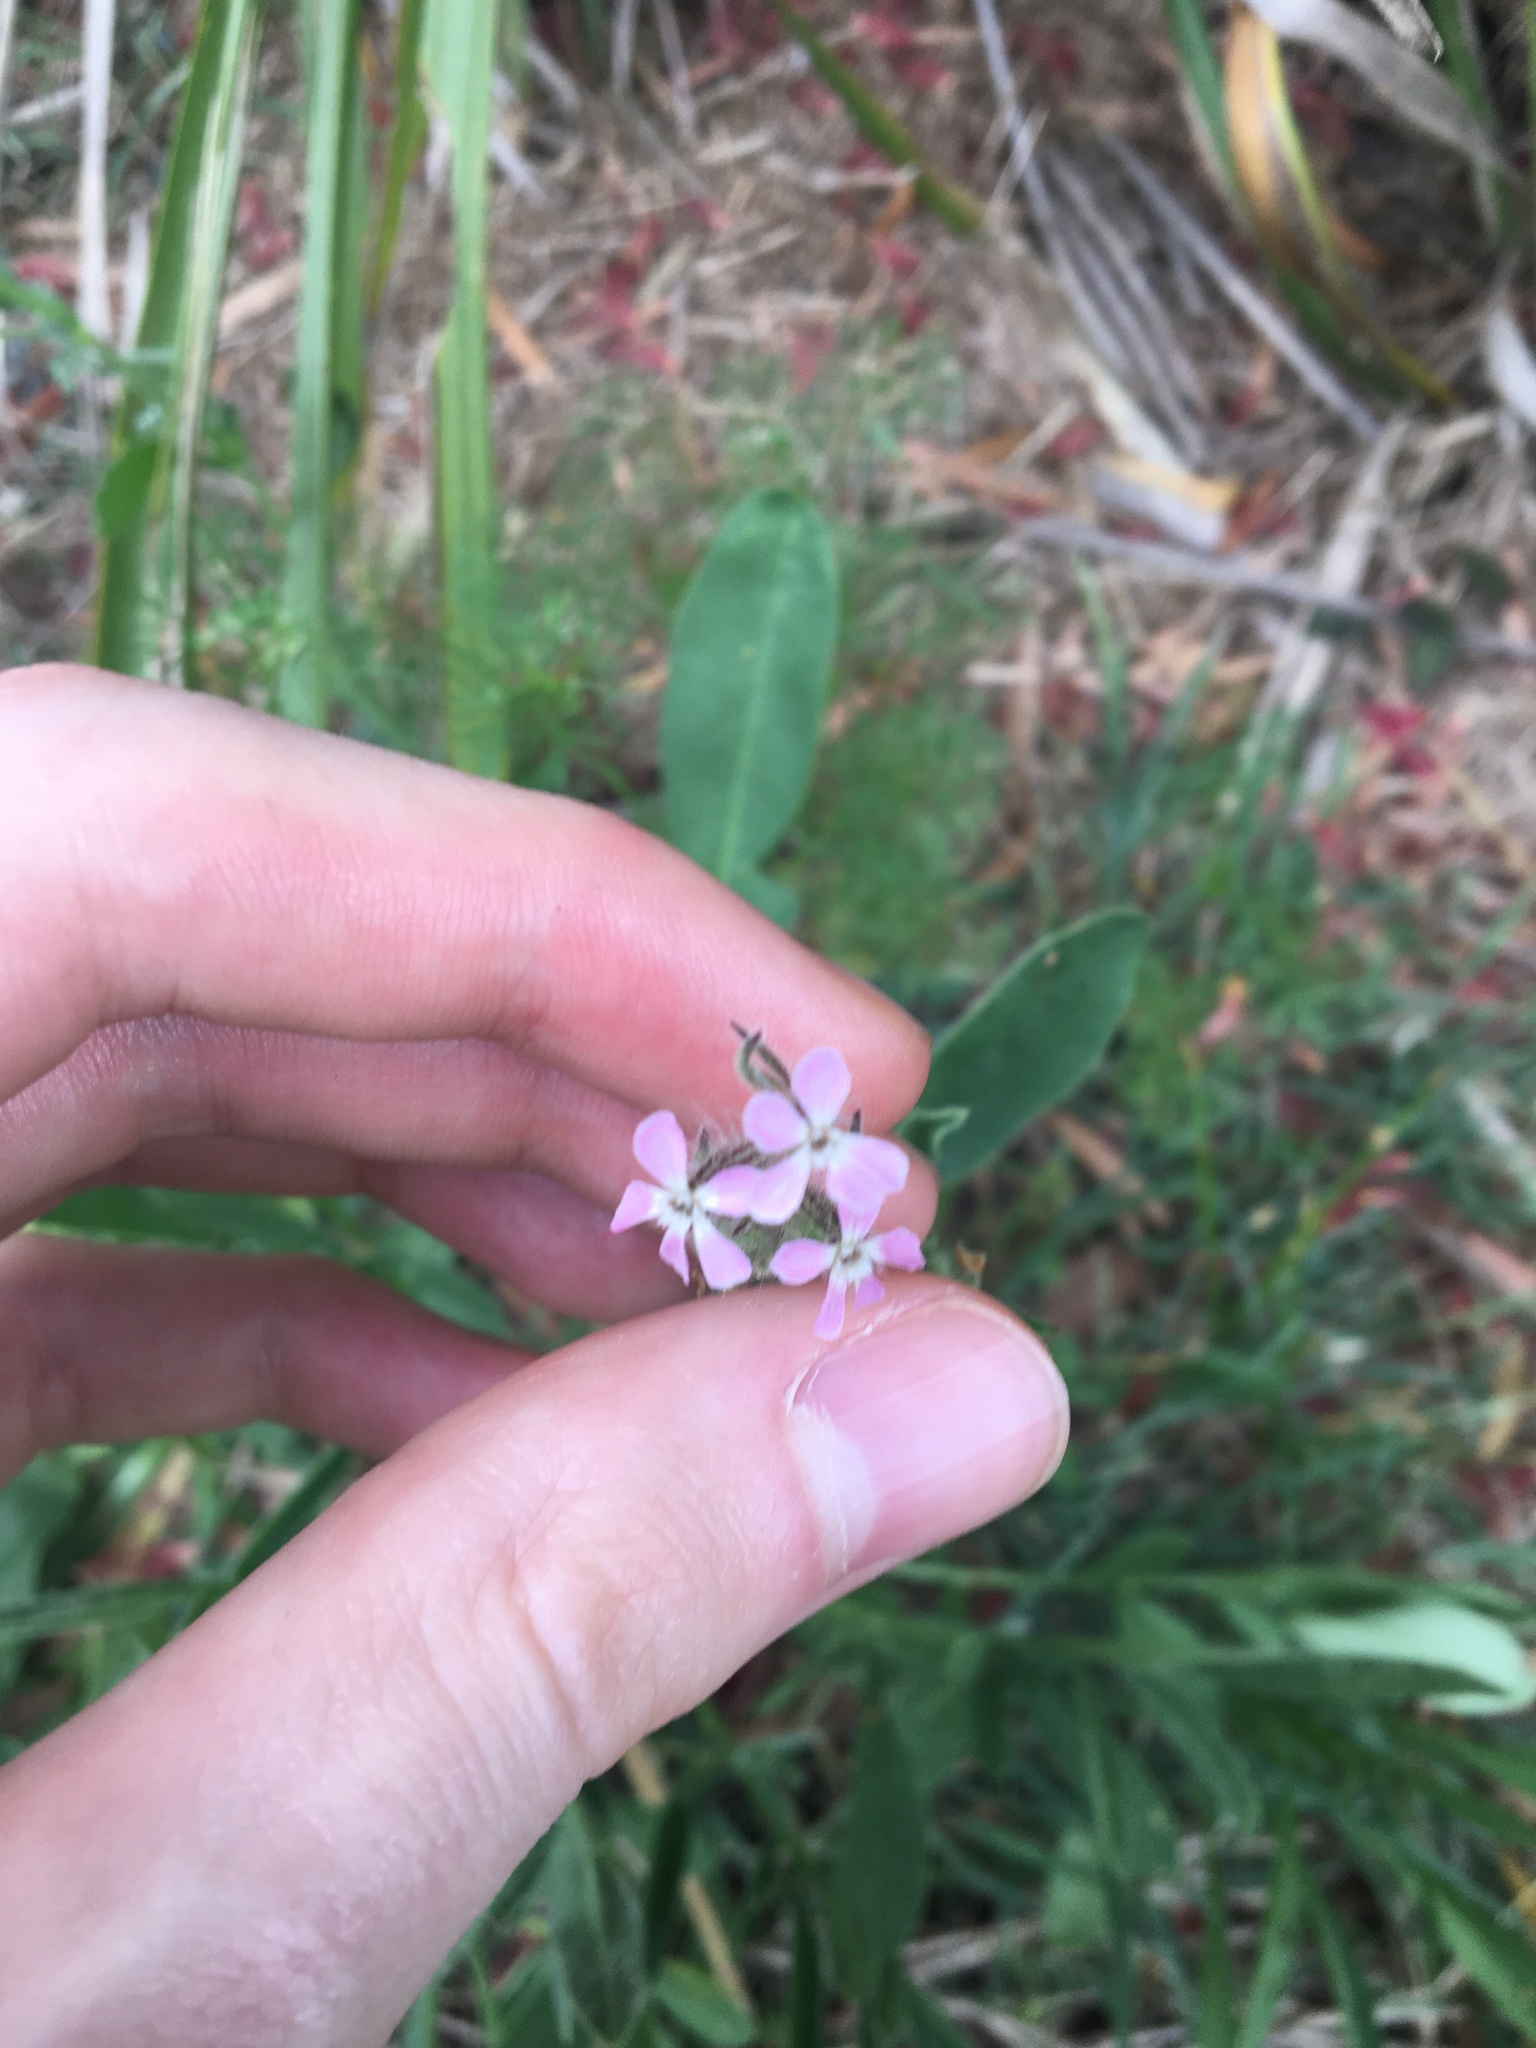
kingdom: Plantae
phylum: Tracheophyta
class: Magnoliopsida
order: Caryophyllales
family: Caryophyllaceae
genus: Silene
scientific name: Silene gallica
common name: Small-flowered catchfly
